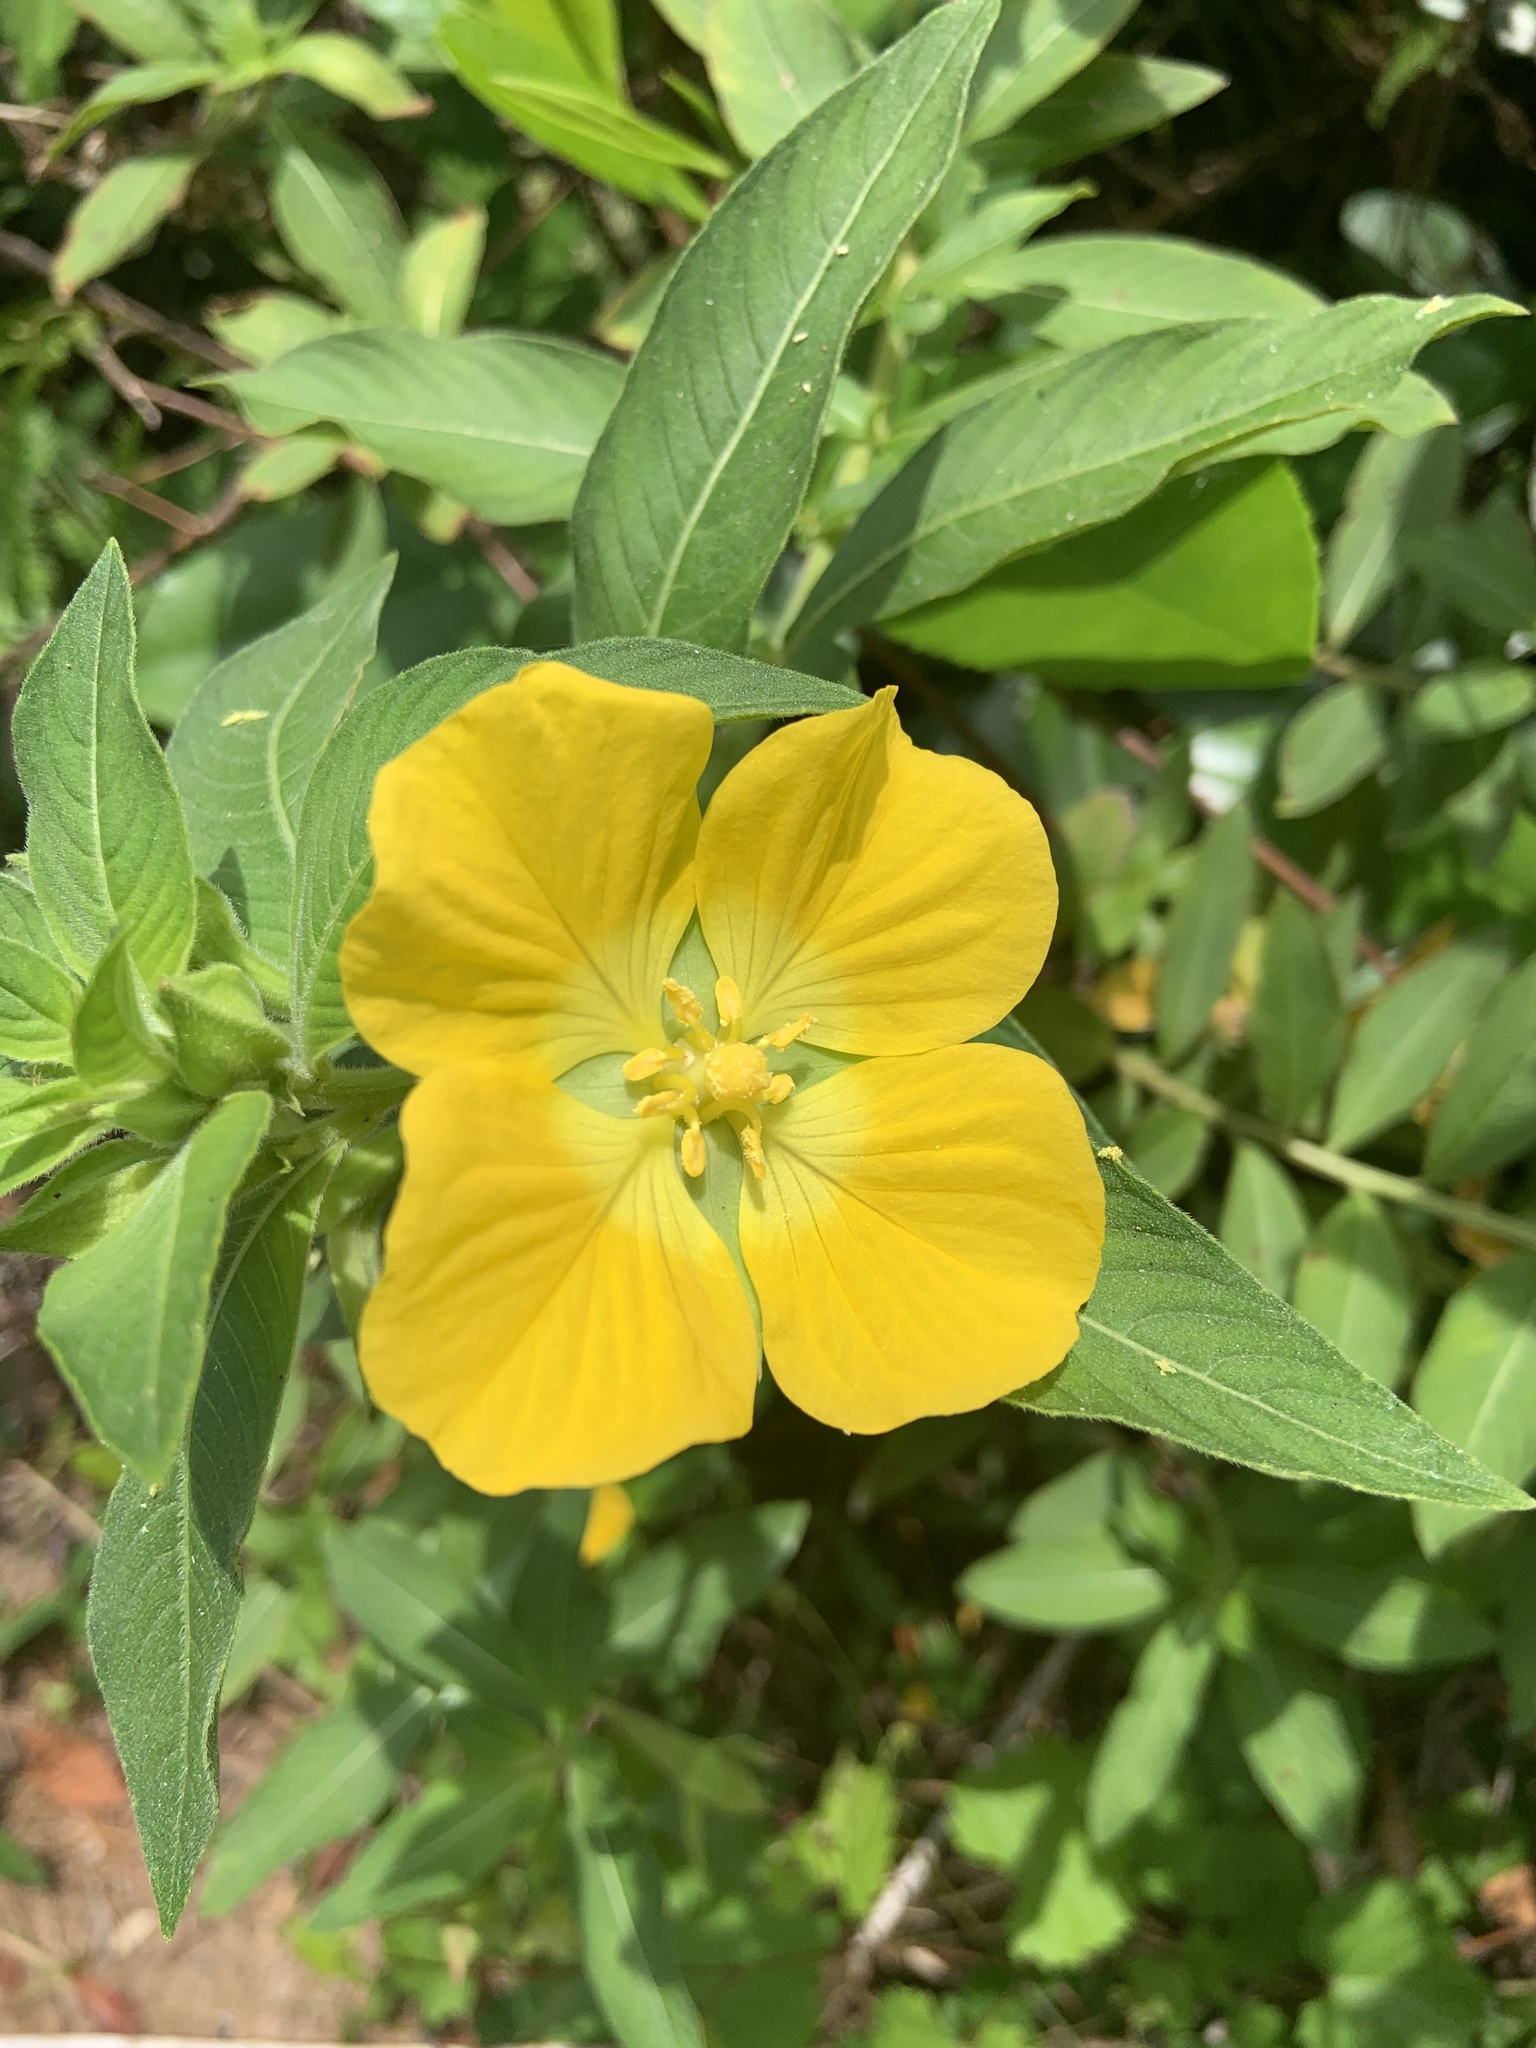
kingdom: Plantae
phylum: Tracheophyta
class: Magnoliopsida
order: Myrtales
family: Onagraceae
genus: Ludwigia
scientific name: Ludwigia peruviana
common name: Peruvian primrose-willow
